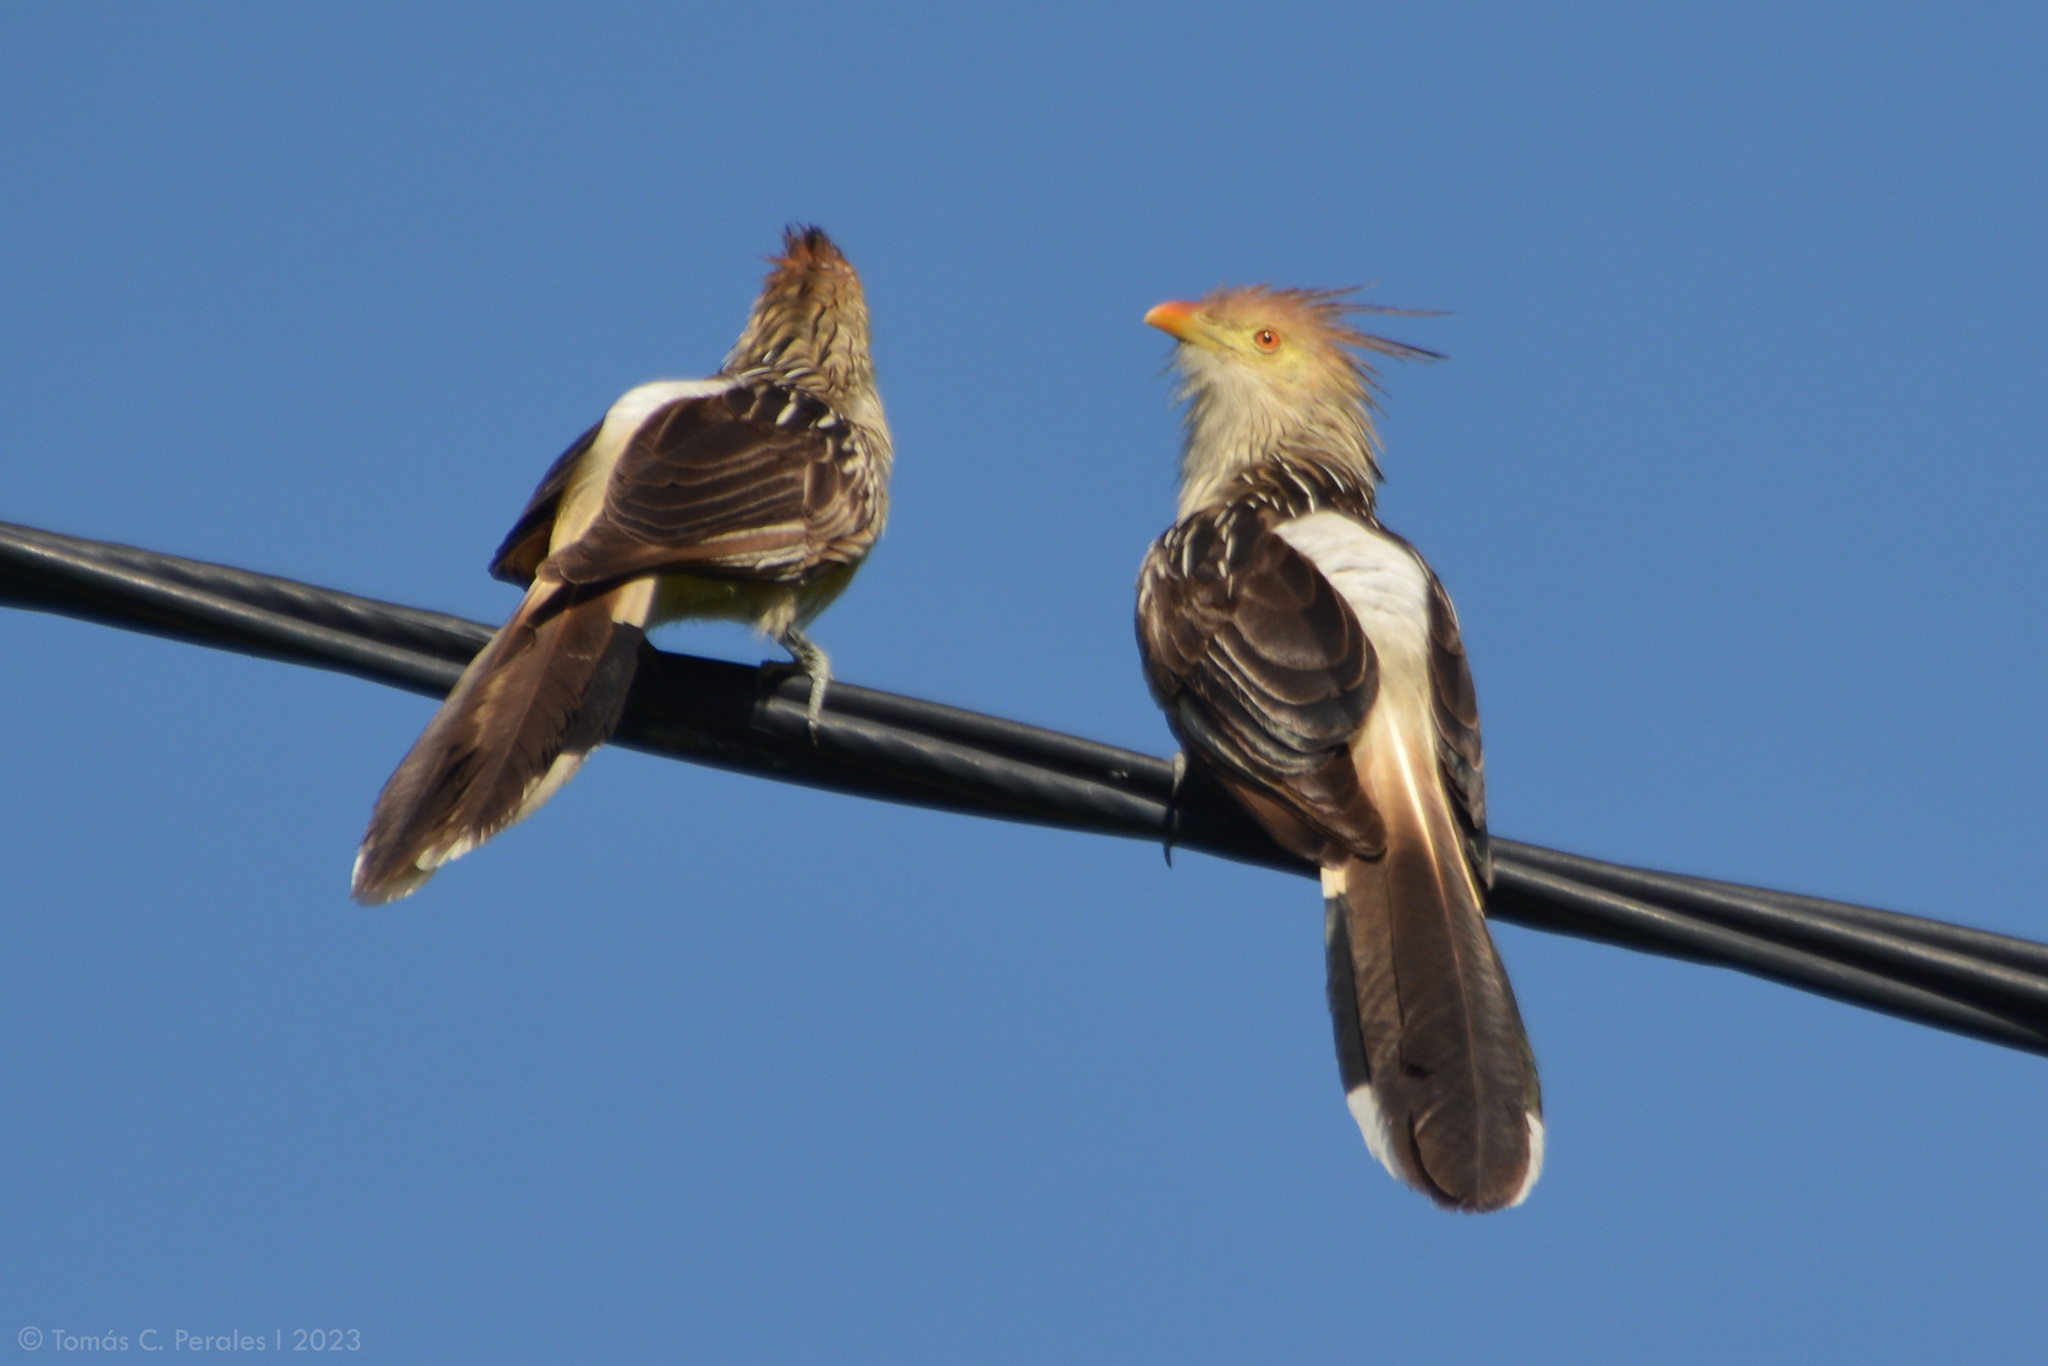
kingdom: Animalia
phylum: Chordata
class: Aves
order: Cuculiformes
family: Cuculidae
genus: Guira
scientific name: Guira guira
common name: Guira cuckoo
